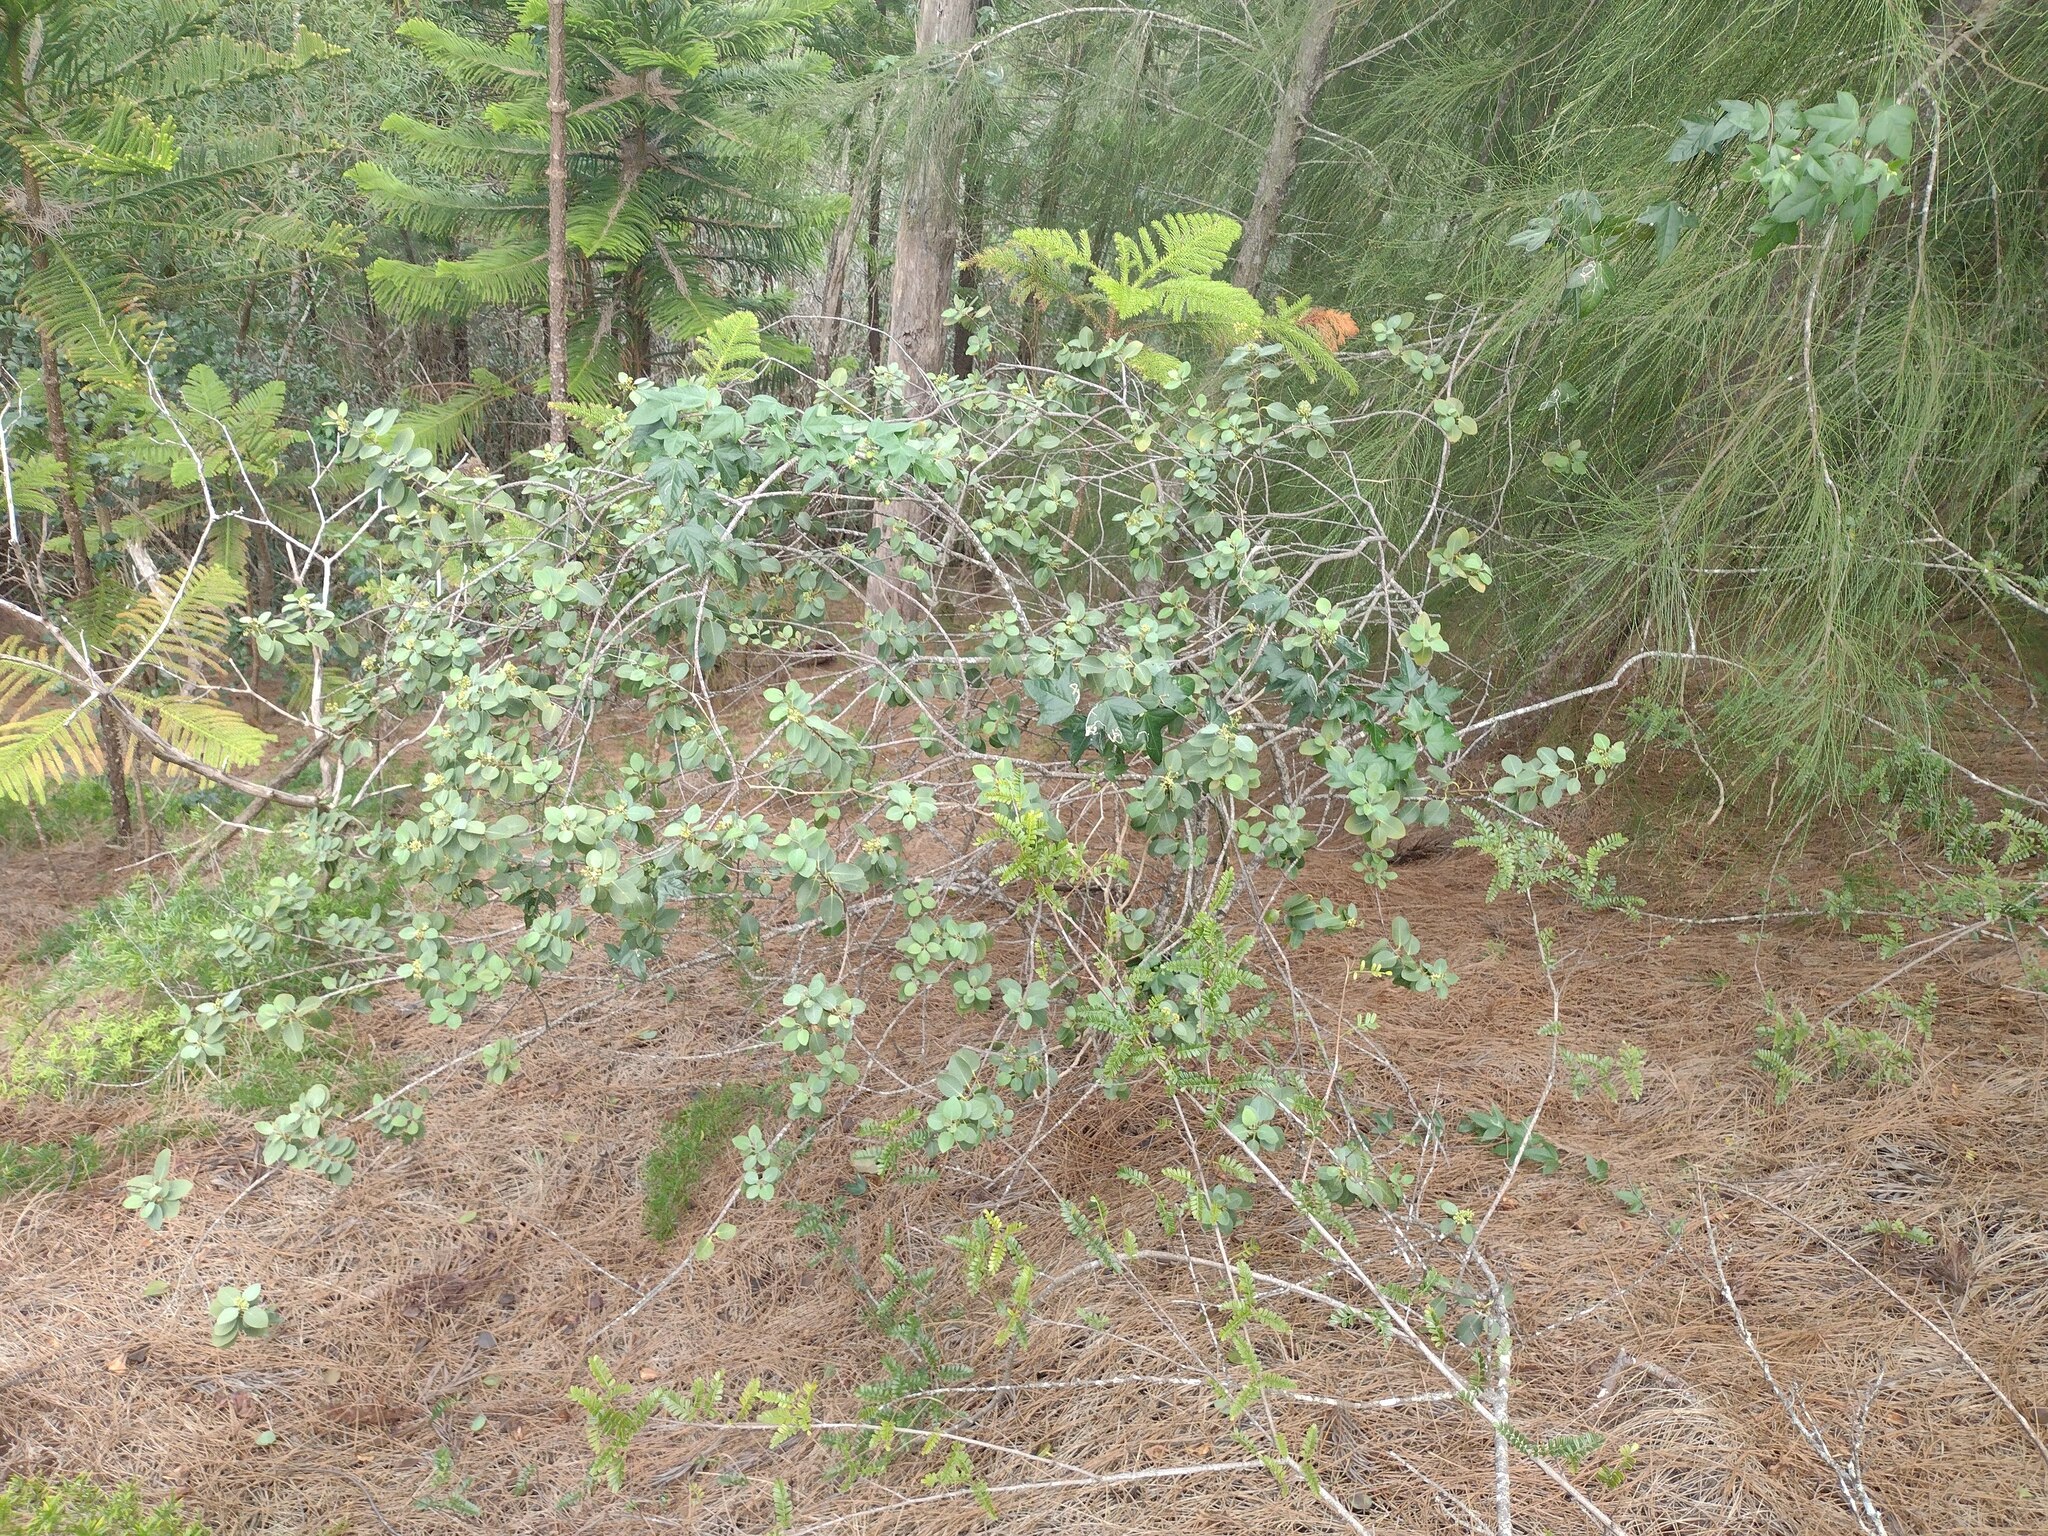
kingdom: Plantae
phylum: Tracheophyta
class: Magnoliopsida
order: Santalales
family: Santalaceae
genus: Santalum
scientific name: Santalum ellipticum
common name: Coast sandalwood
